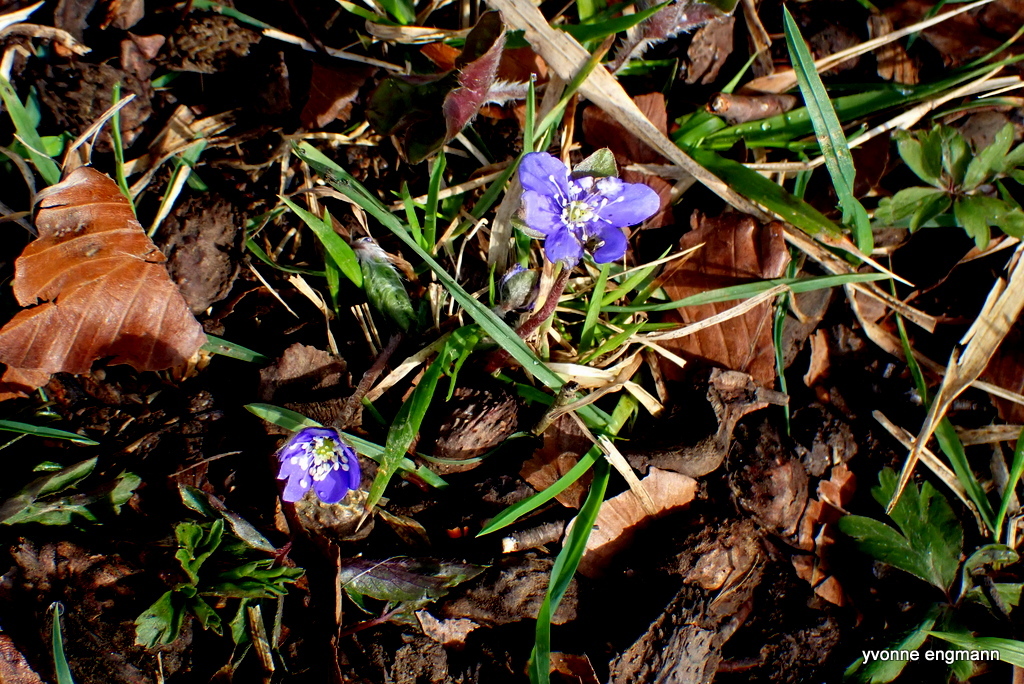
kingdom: Plantae
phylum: Tracheophyta
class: Magnoliopsida
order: Ranunculales
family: Ranunculaceae
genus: Hepatica
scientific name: Hepatica nobilis
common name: Liverleaf
